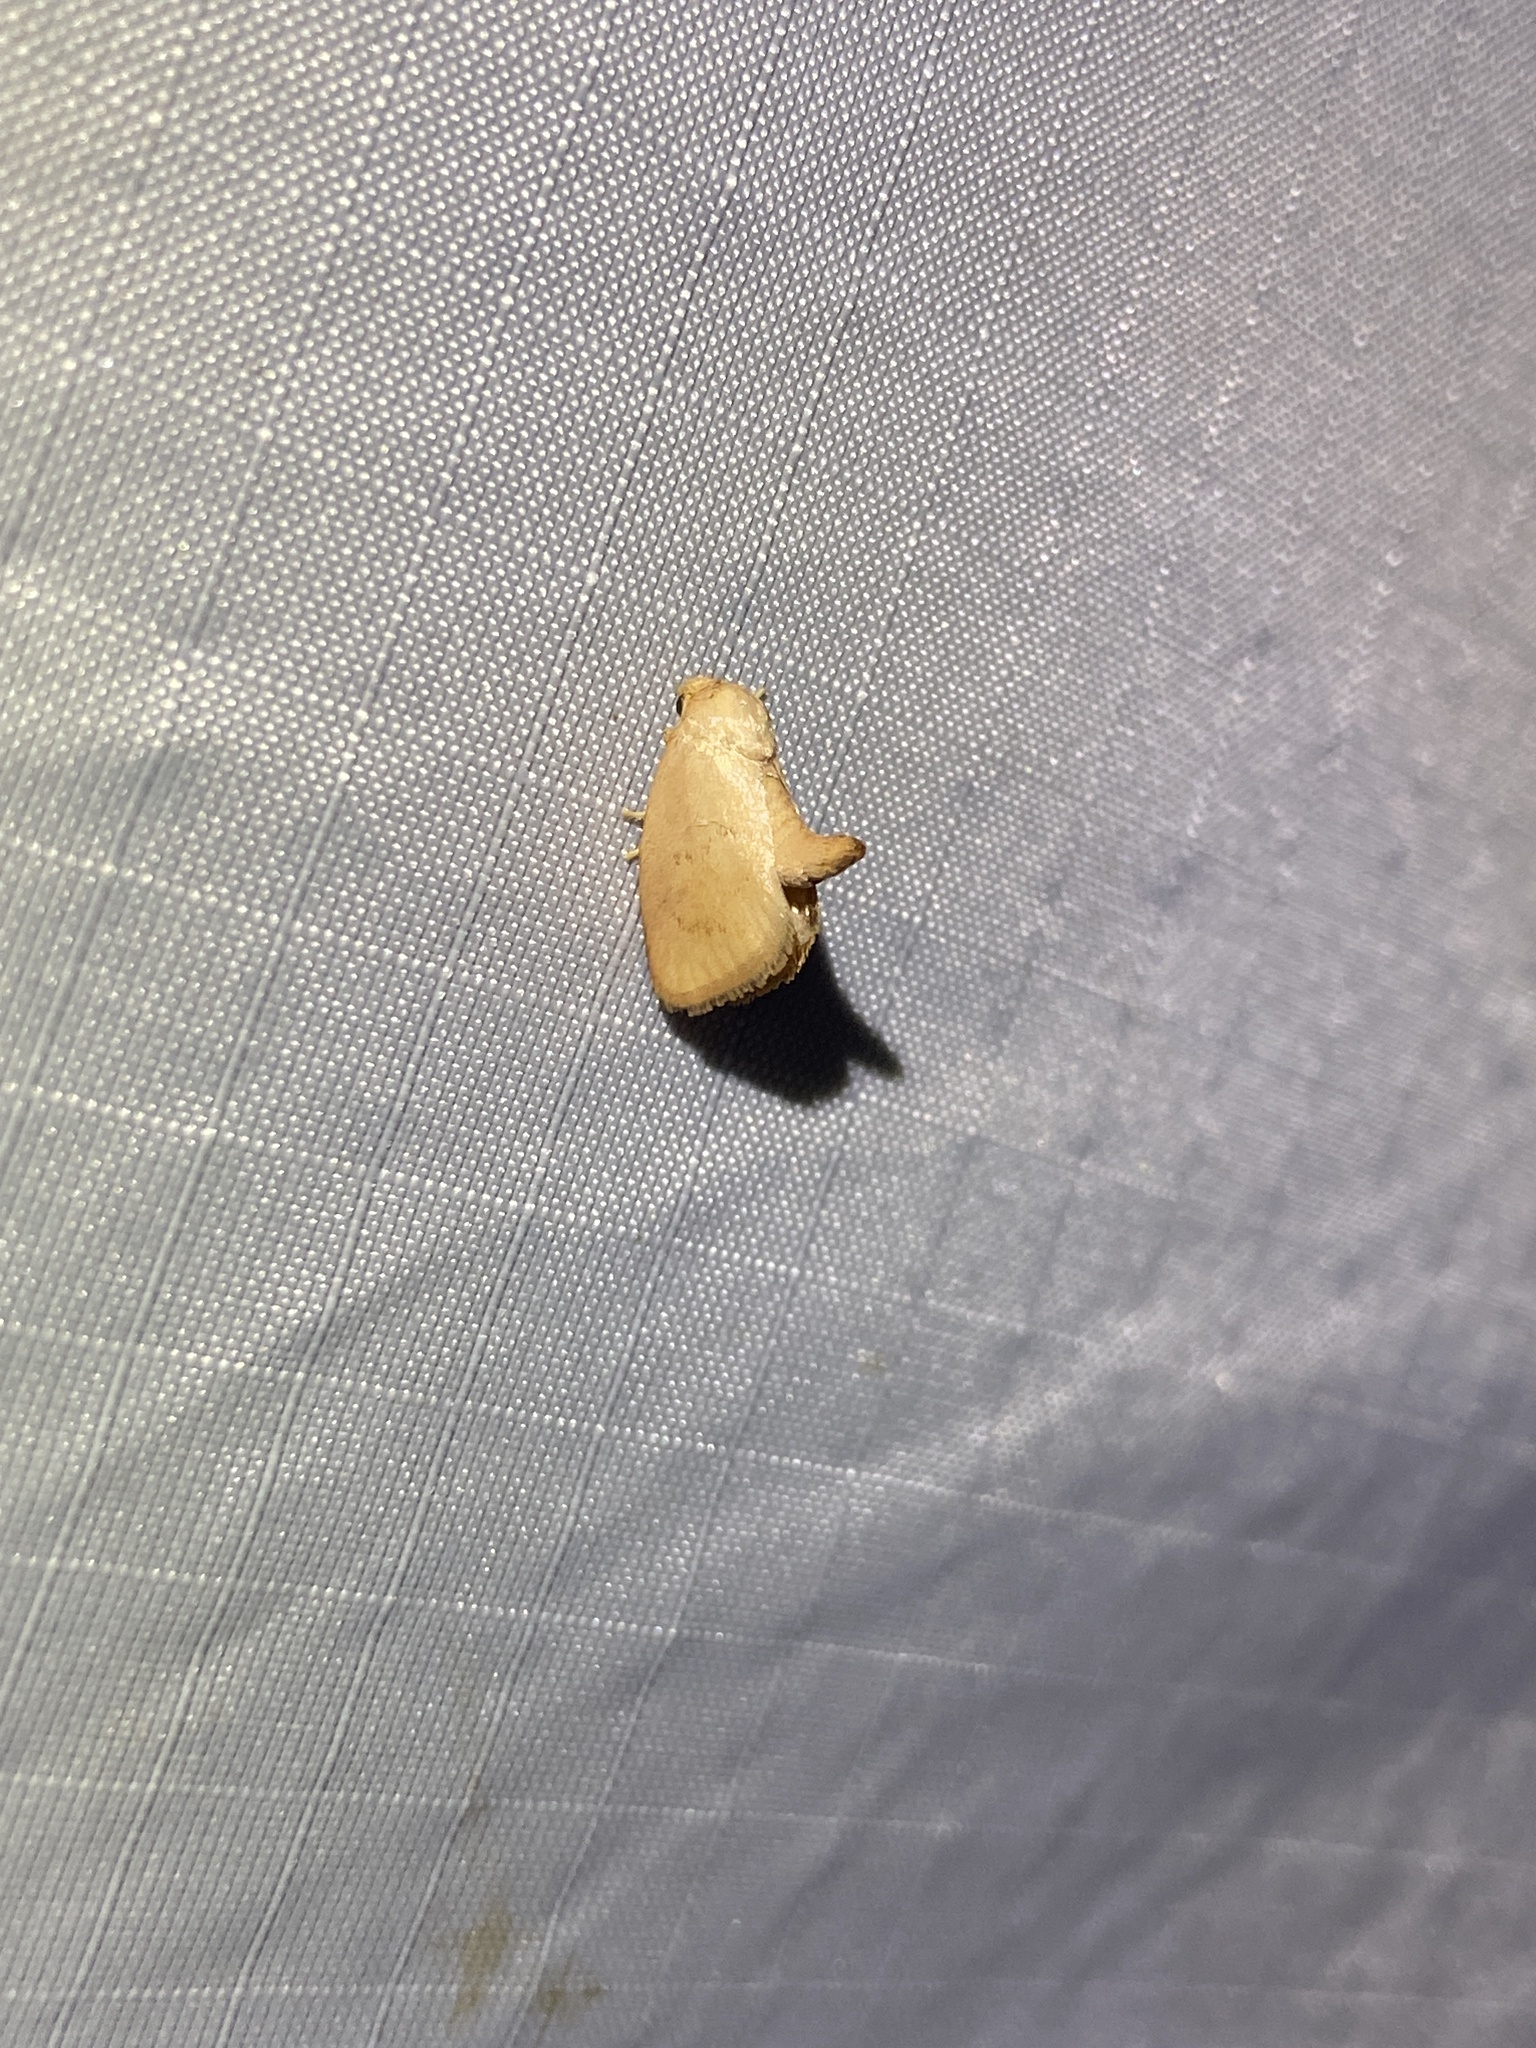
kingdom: Animalia
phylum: Arthropoda
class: Insecta
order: Lepidoptera
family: Limacodidae
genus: Tortricidia
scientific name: Tortricidia pallida
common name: Red-crossed button slug moth
